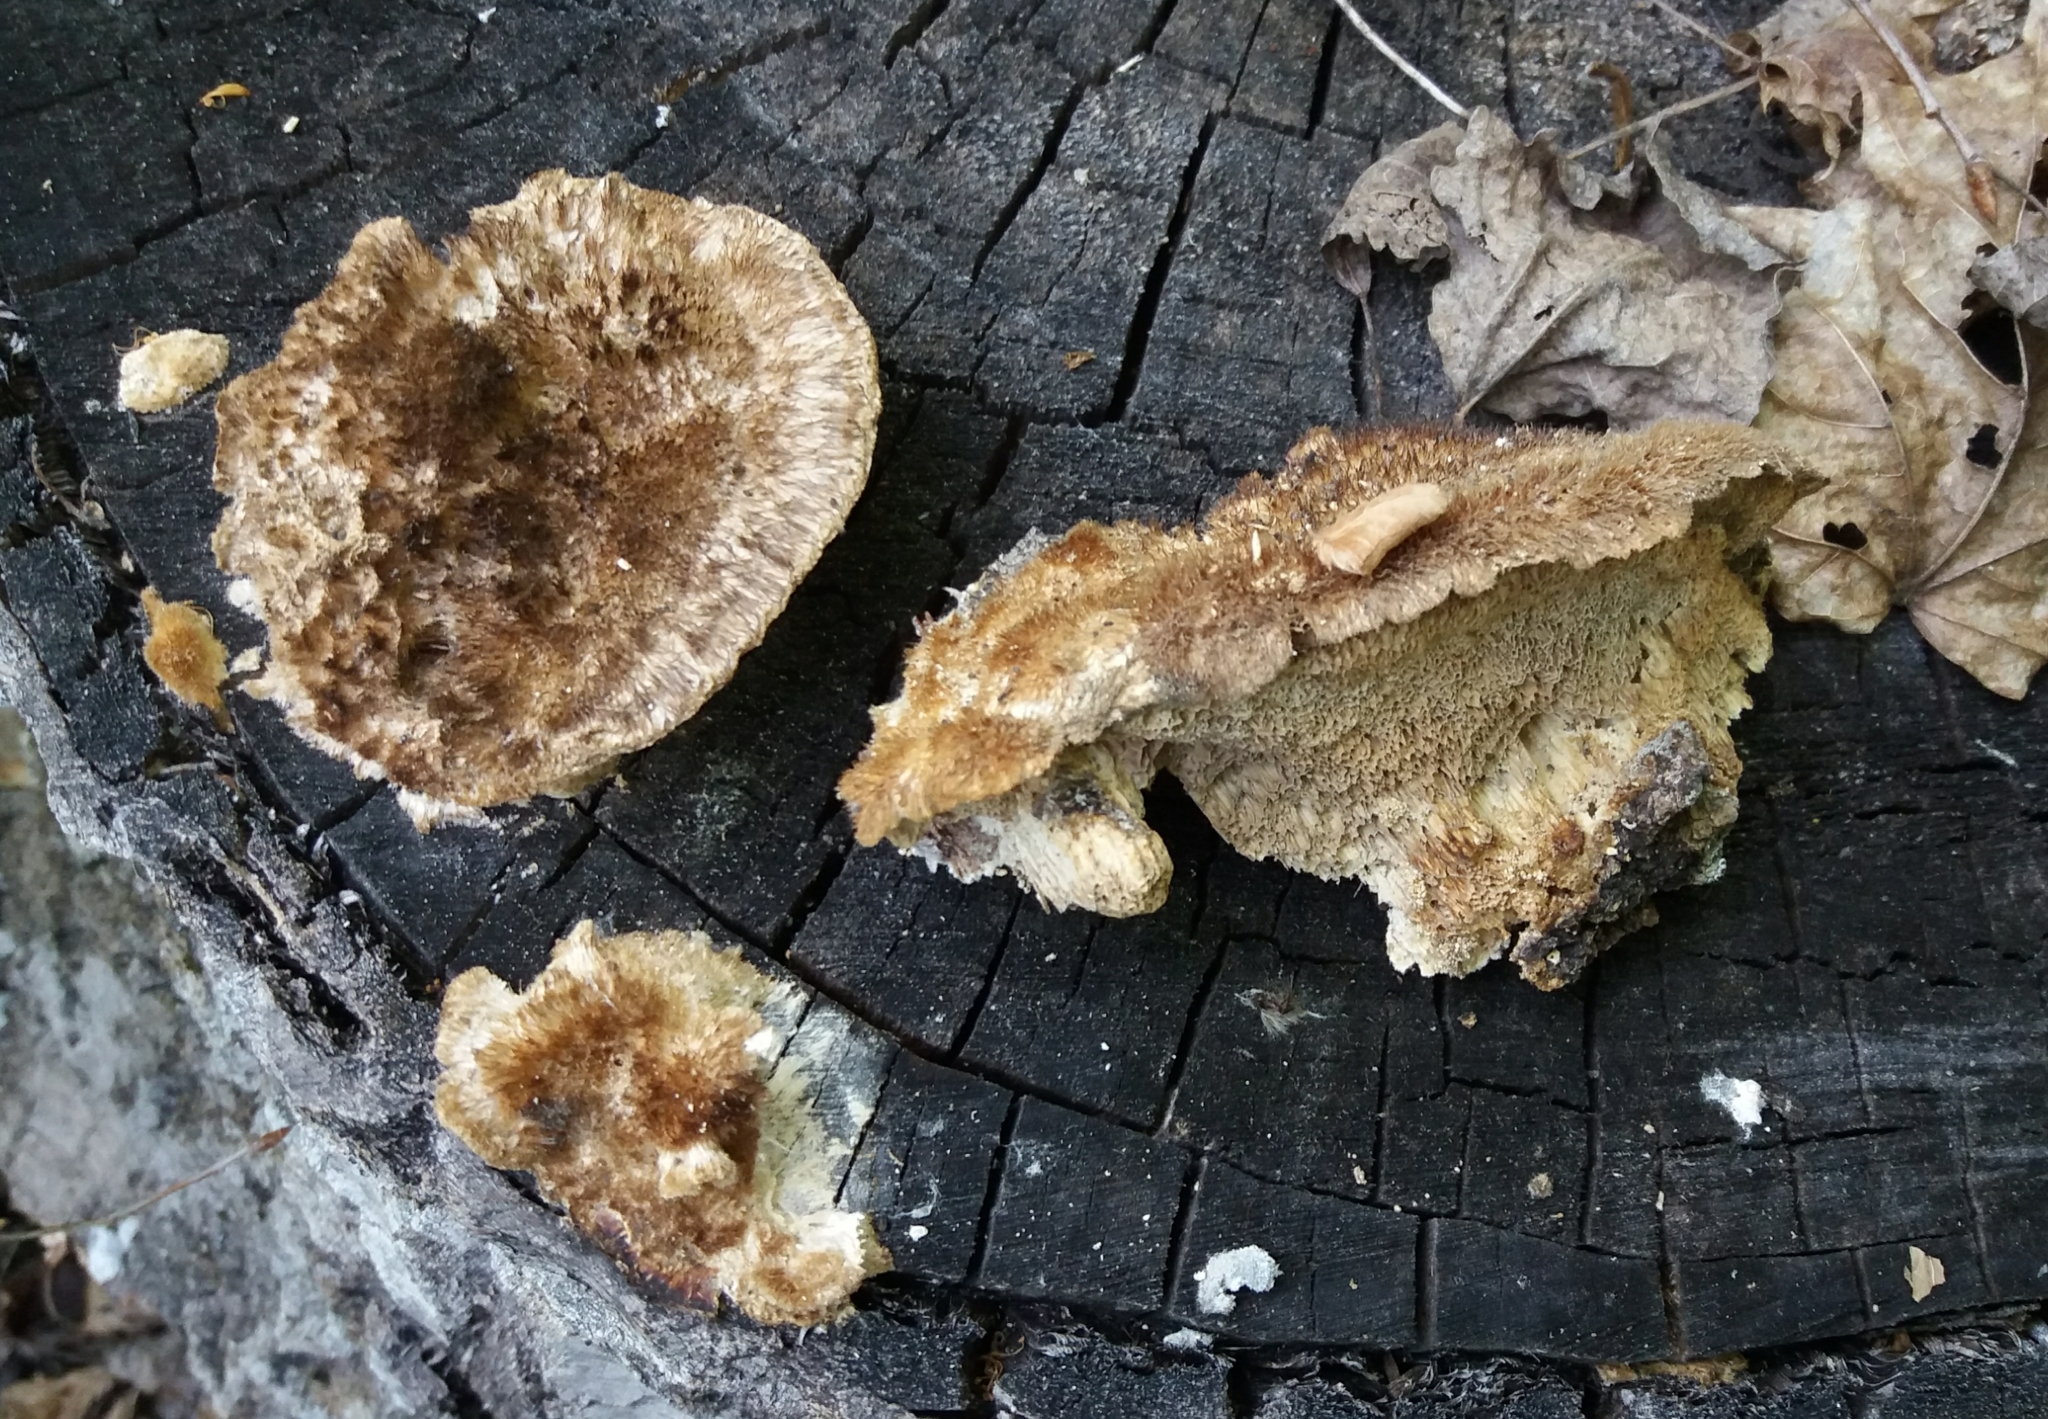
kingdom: Fungi
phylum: Basidiomycota
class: Agaricomycetes
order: Polyporales
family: Polyporaceae
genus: Trametes
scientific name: Trametes trogii
